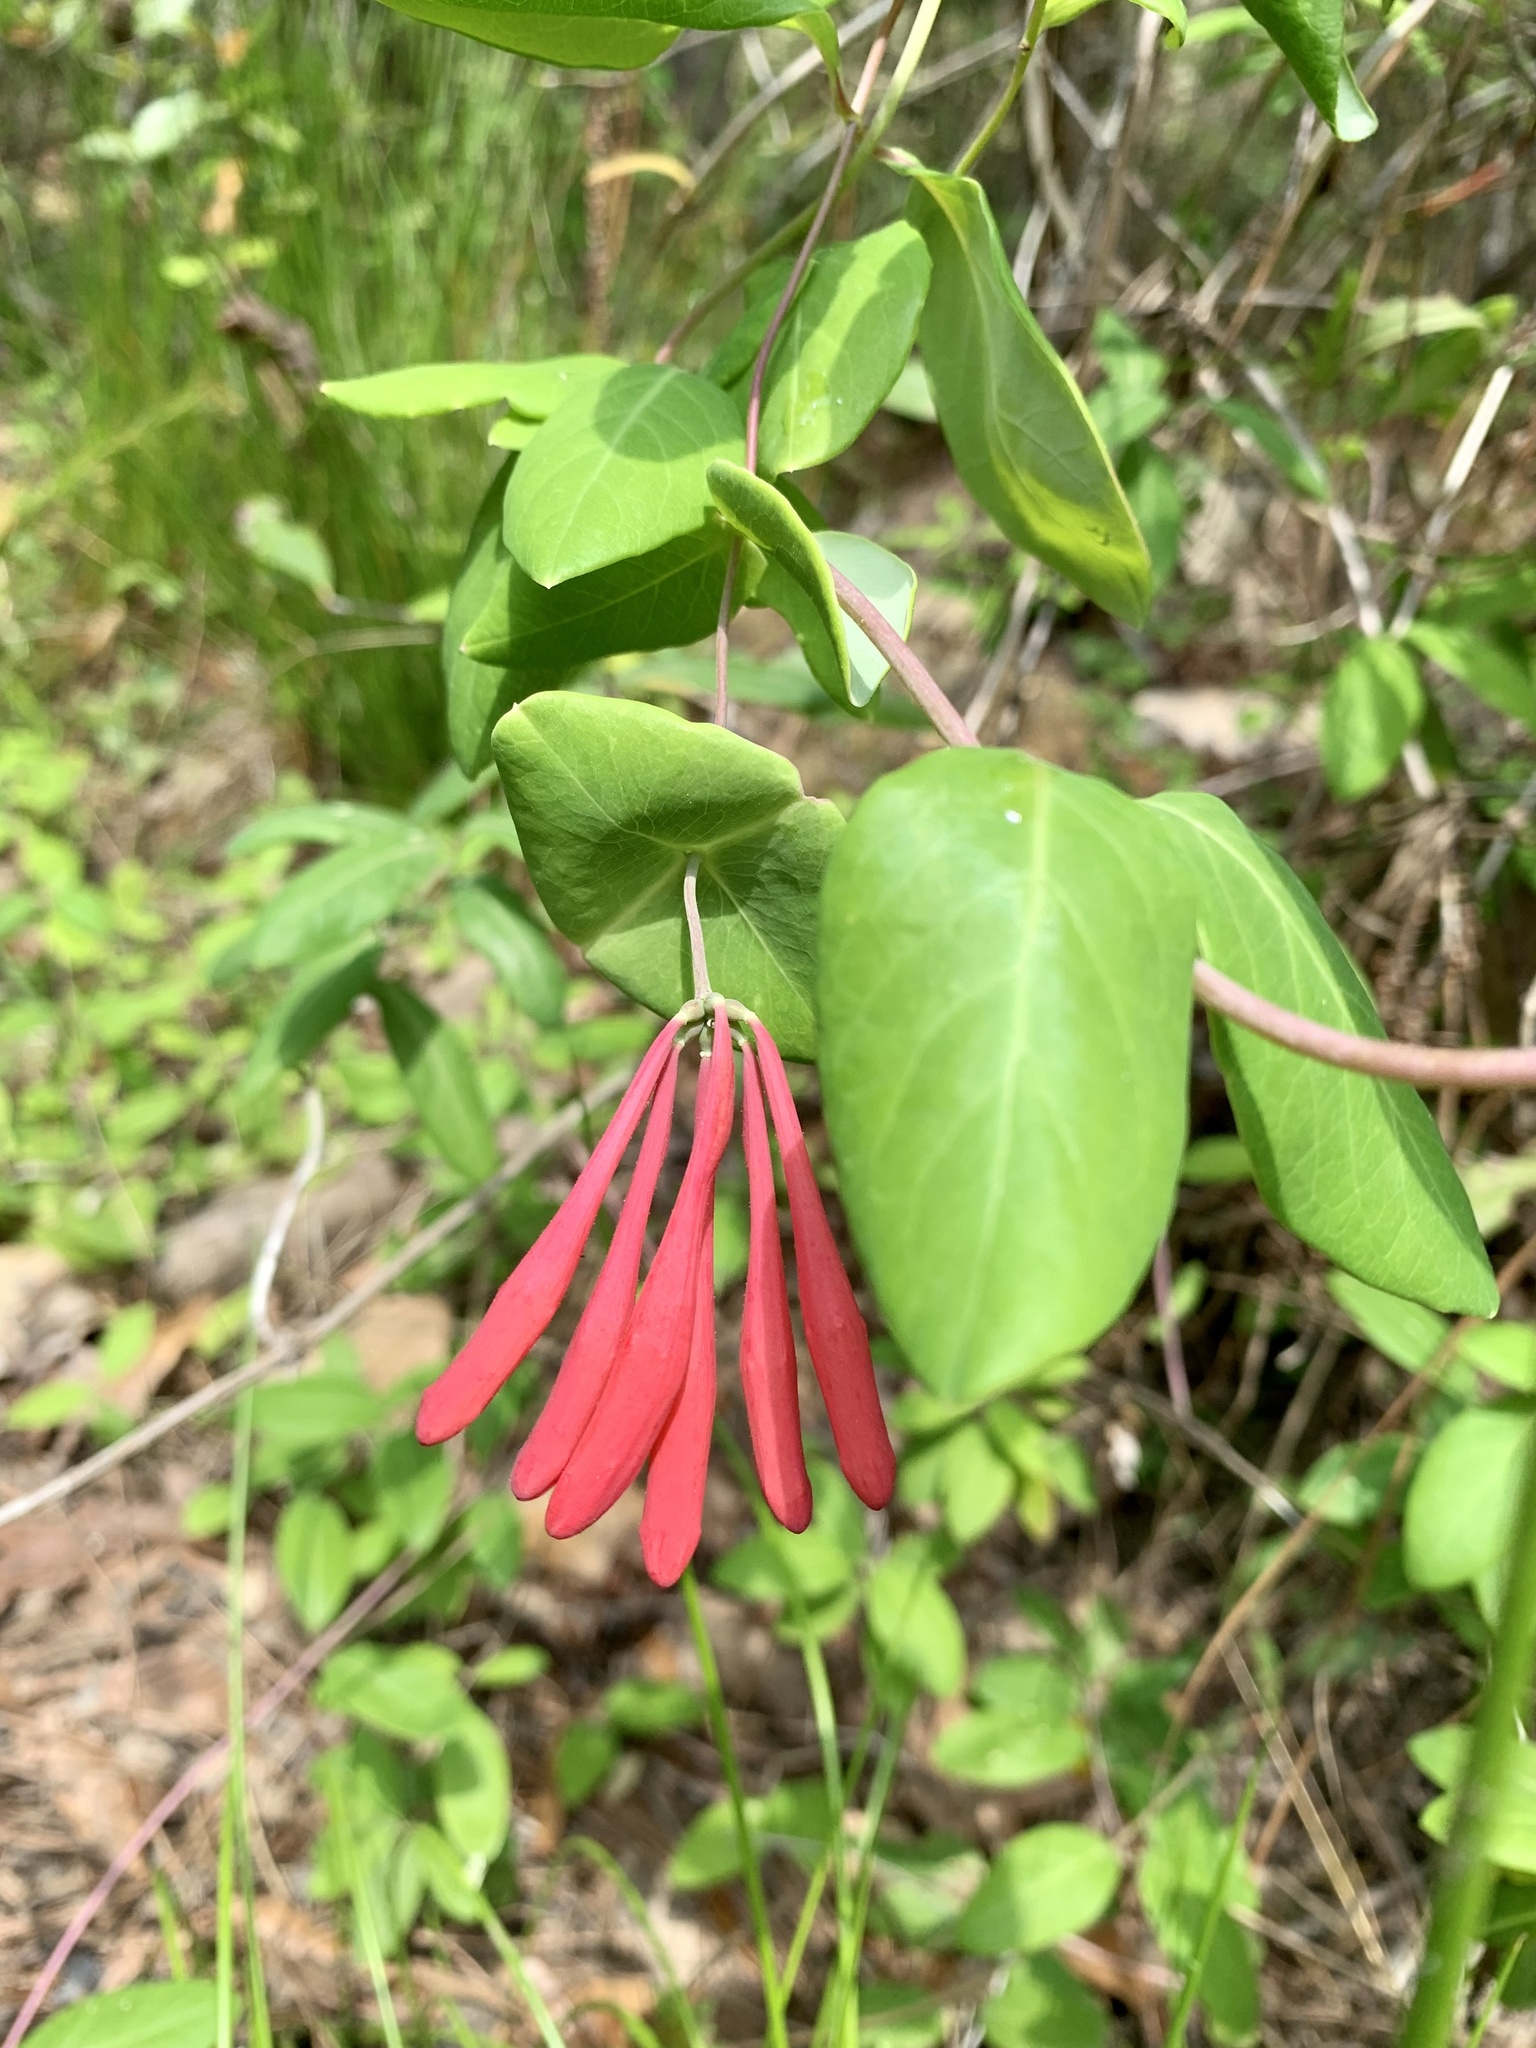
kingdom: Plantae
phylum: Tracheophyta
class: Magnoliopsida
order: Dipsacales
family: Caprifoliaceae
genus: Lonicera
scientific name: Lonicera sempervirens
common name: Coral honeysuckle
